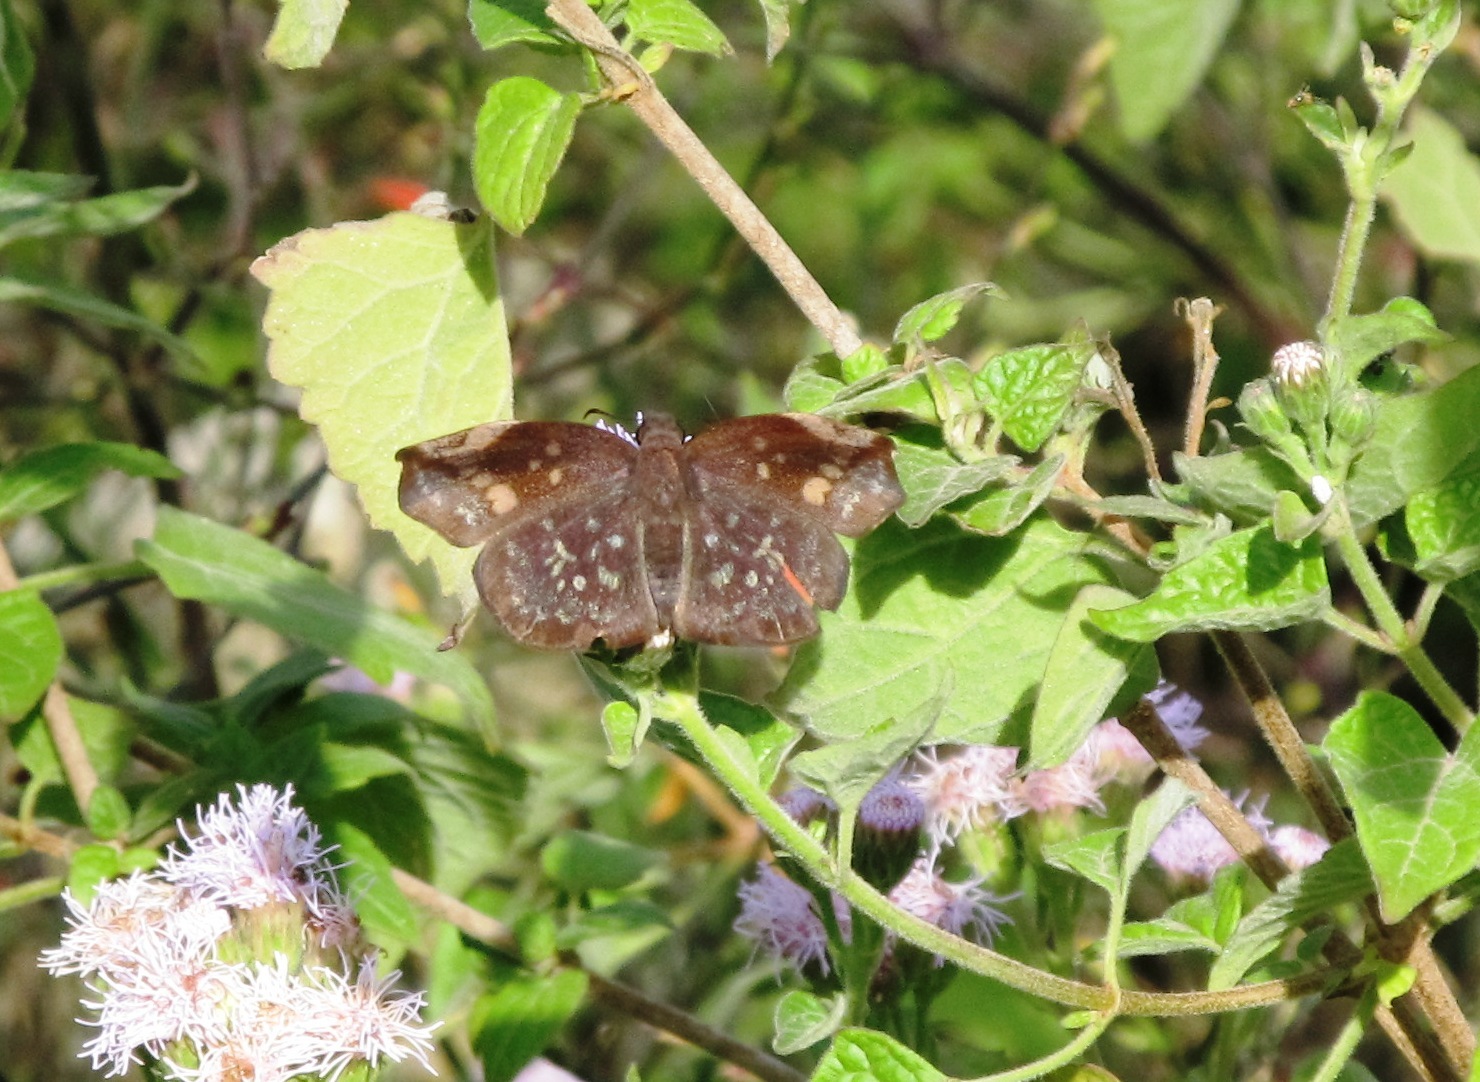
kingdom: Animalia
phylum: Arthropoda
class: Insecta
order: Lepidoptera
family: Hesperiidae
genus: Achlyodes
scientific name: Achlyodes thraso
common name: Sickle-winged skipper
